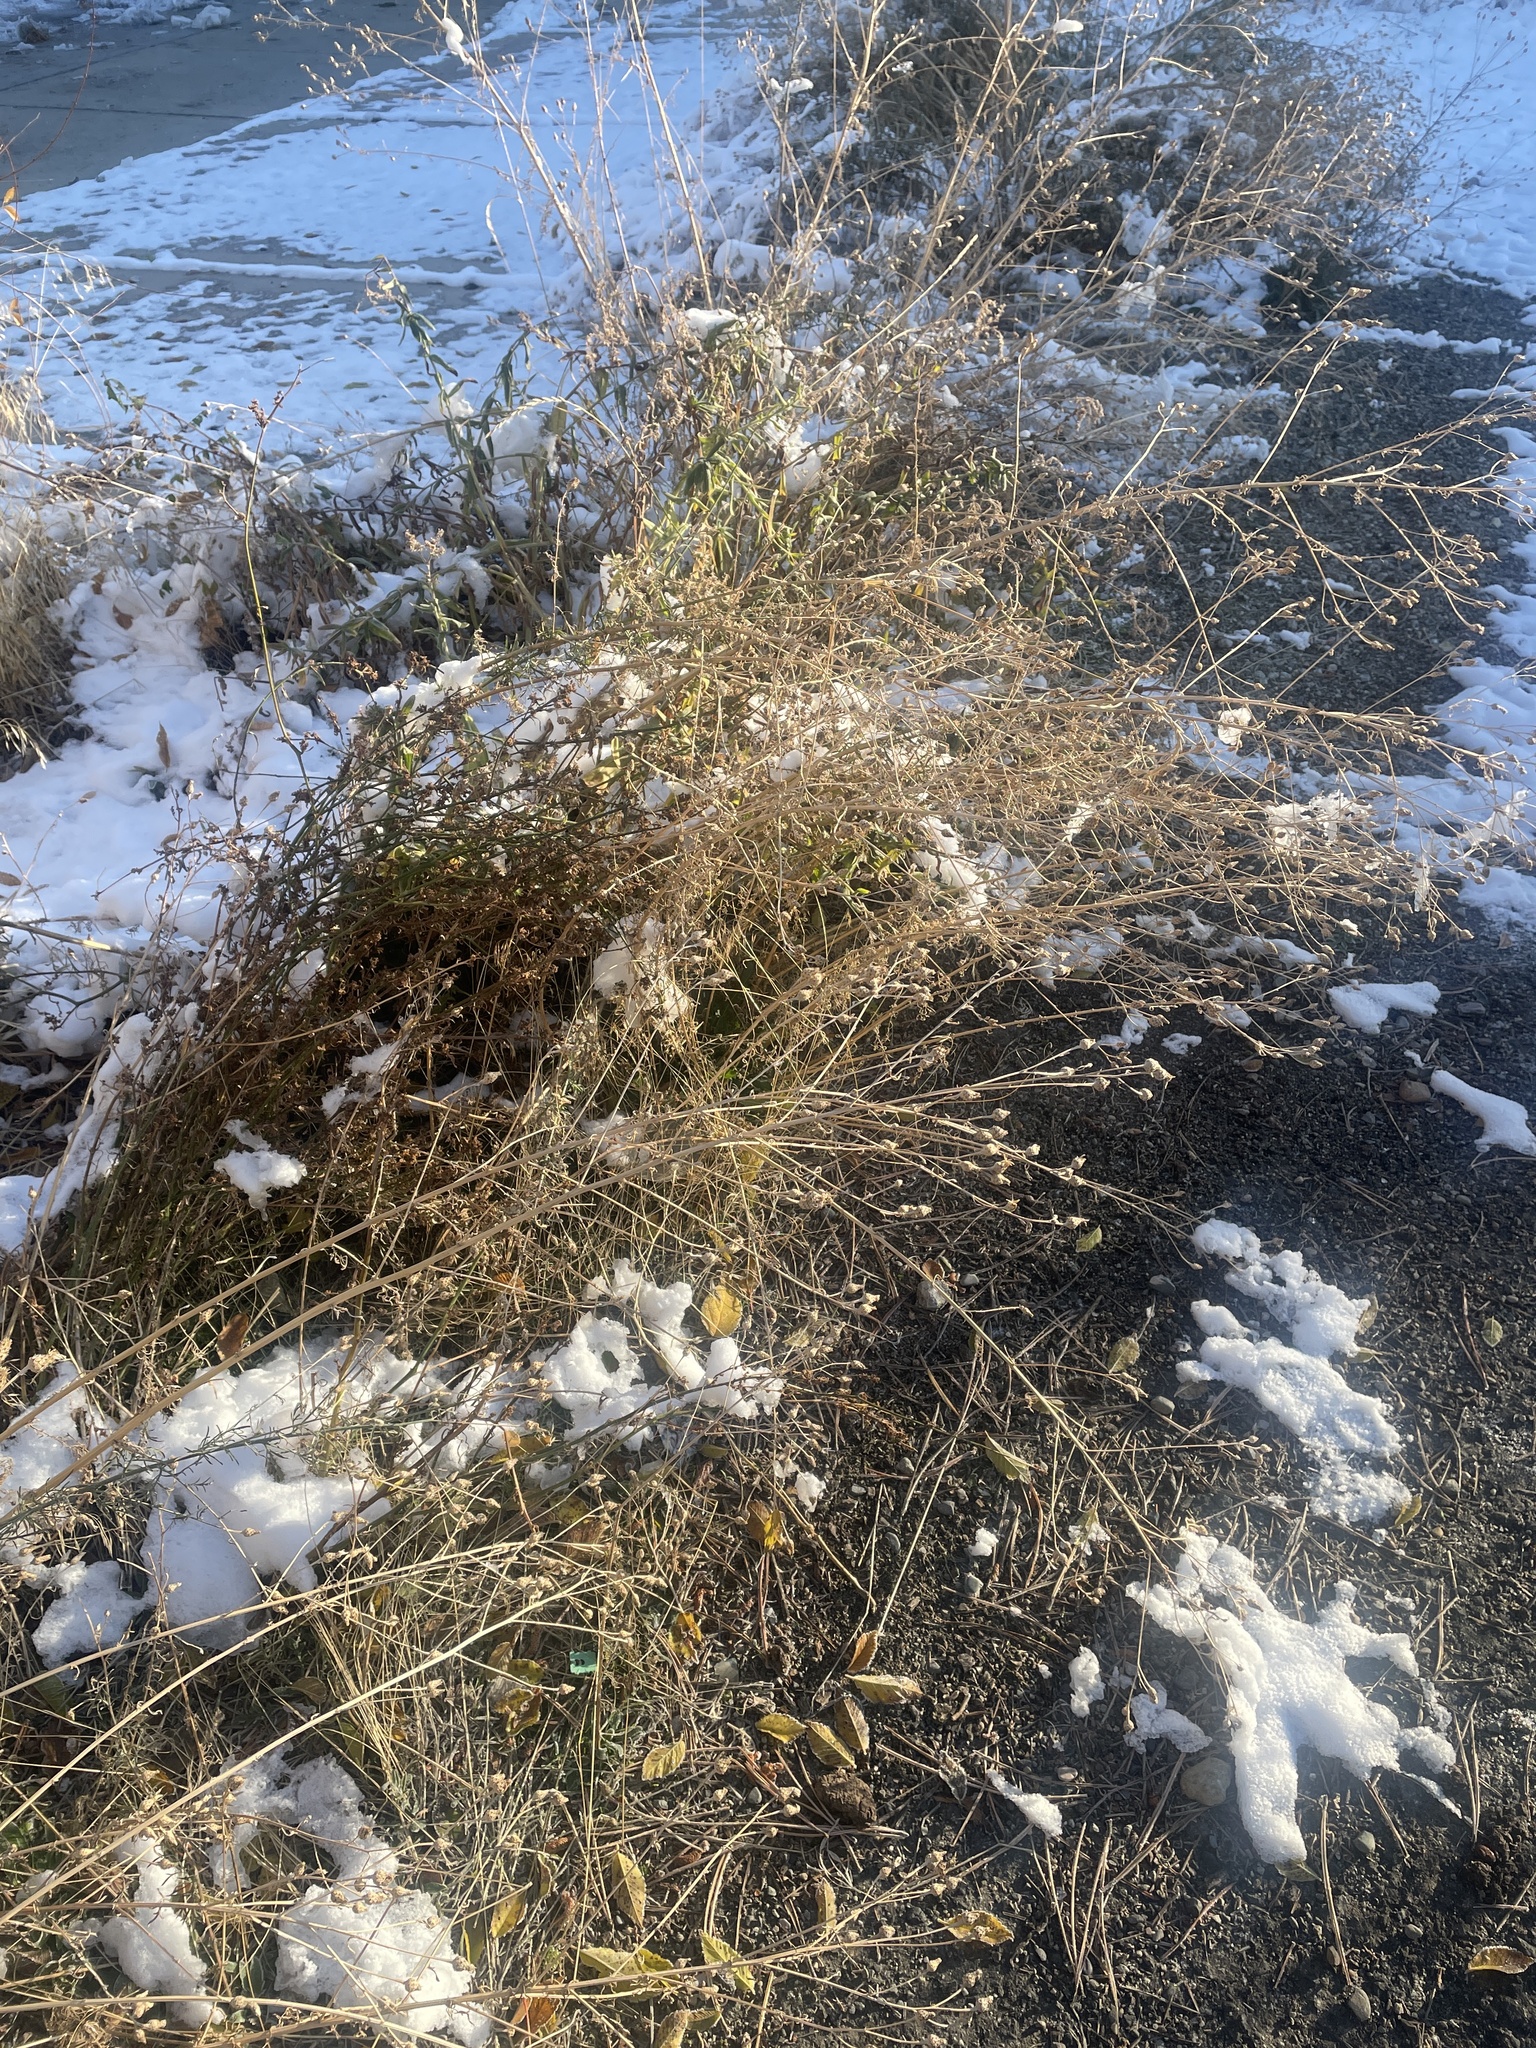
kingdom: Plantae
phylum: Tracheophyta
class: Magnoliopsida
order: Asterales
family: Asteraceae
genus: Centaurea
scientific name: Centaurea stoebe
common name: Spotted knapweed
